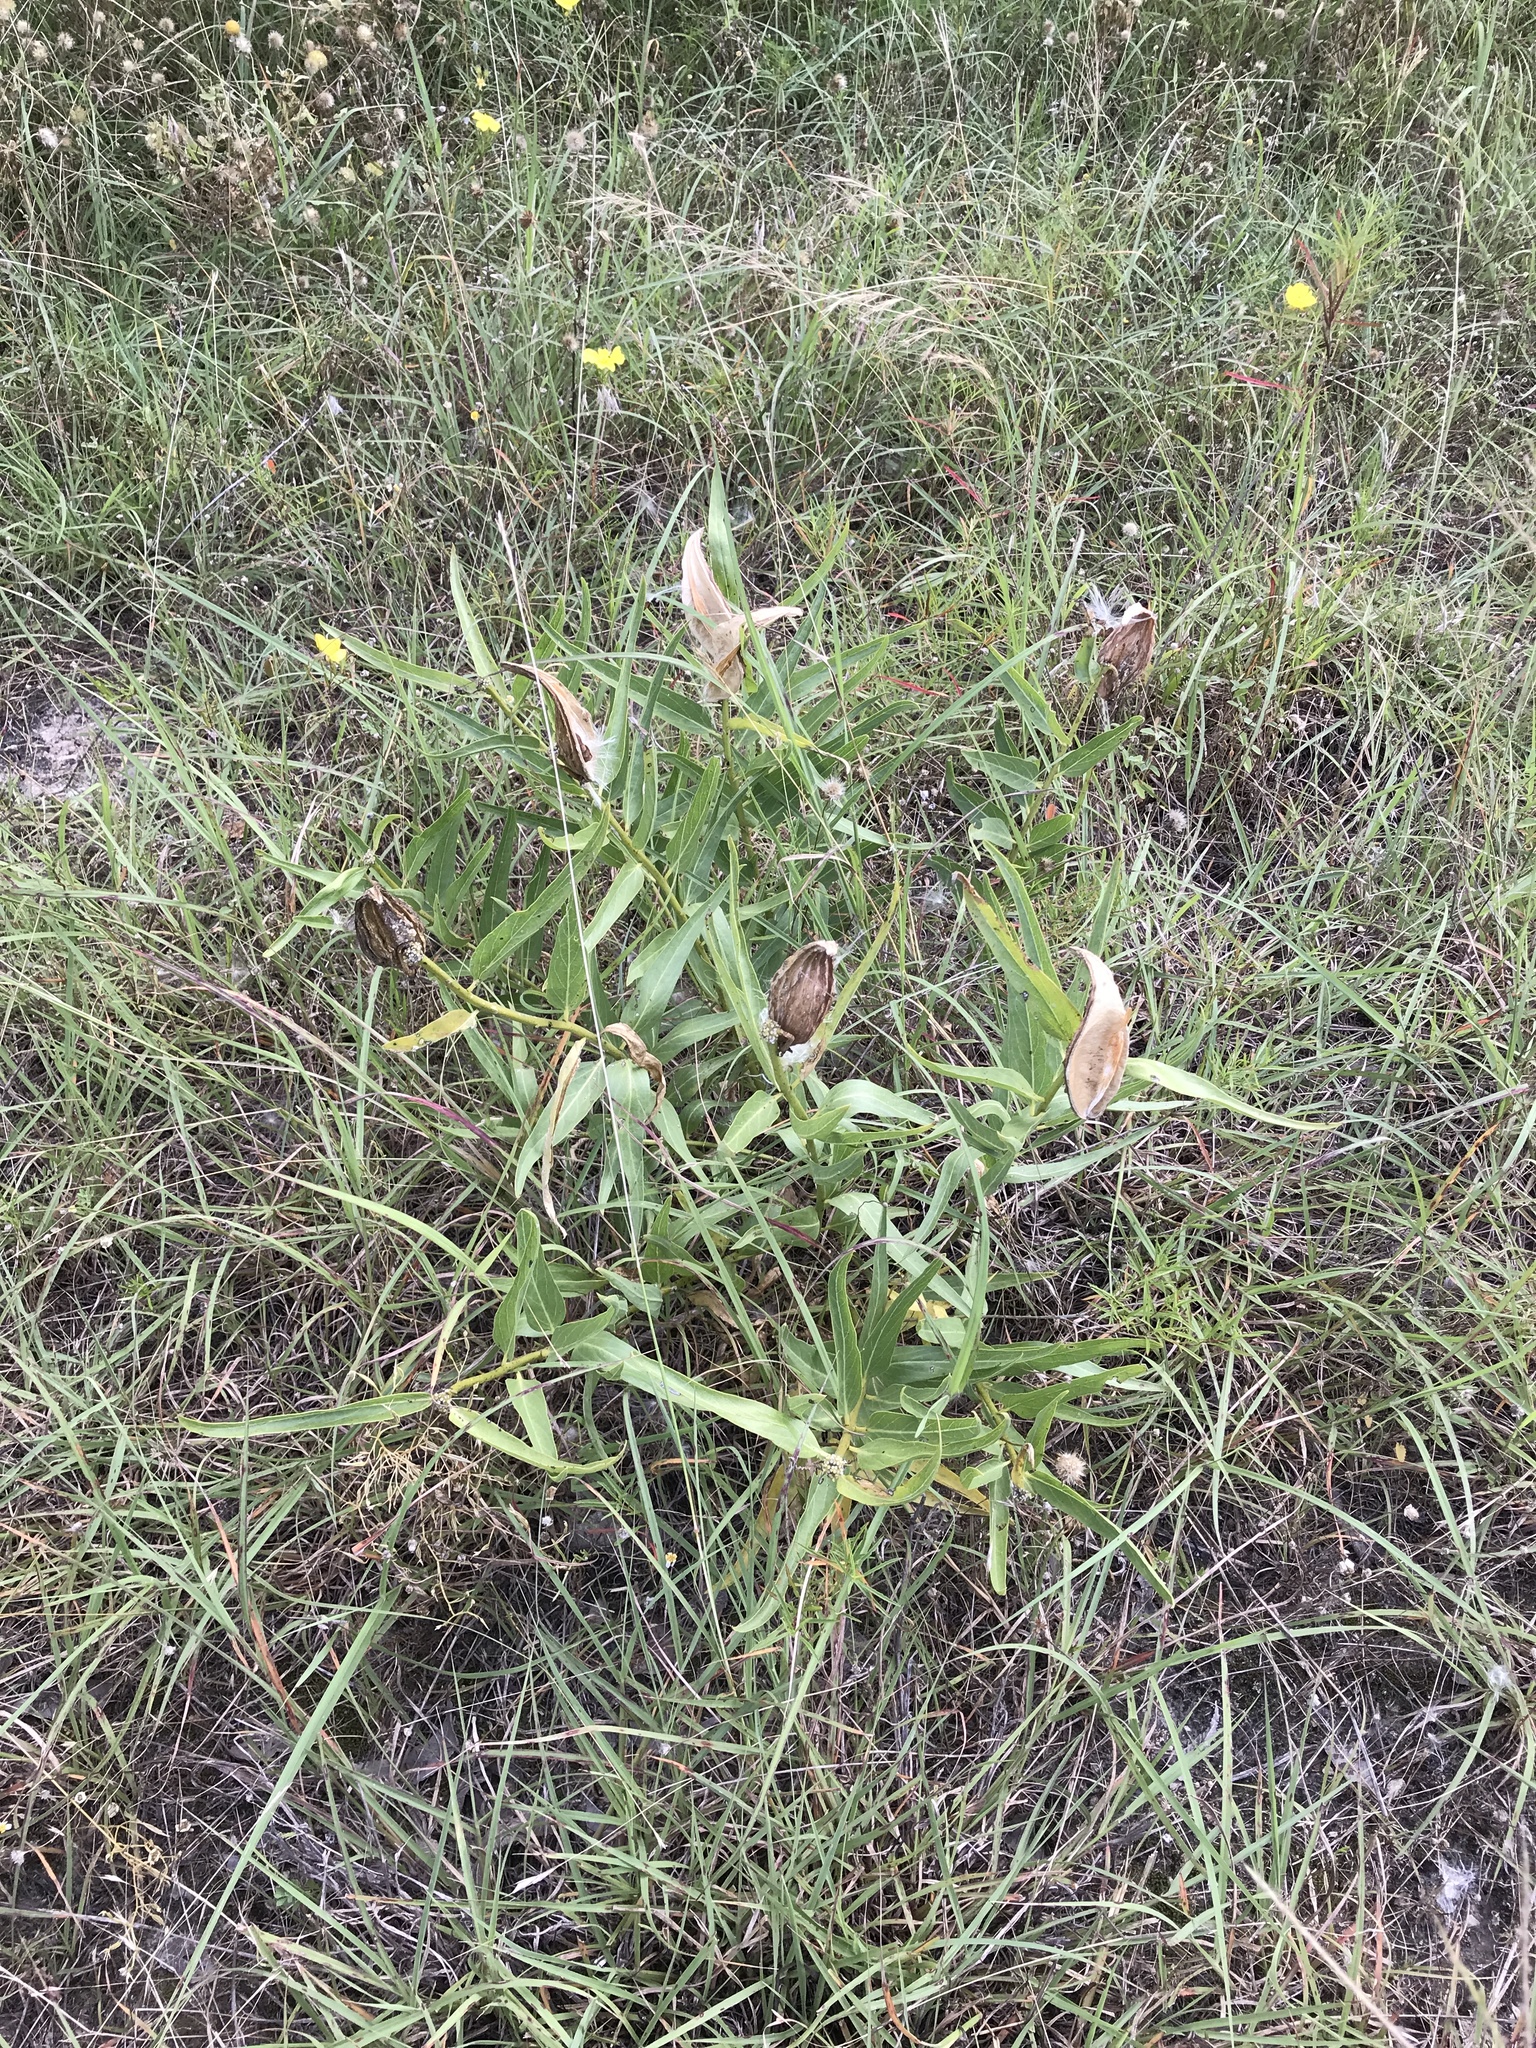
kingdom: Plantae
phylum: Tracheophyta
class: Magnoliopsida
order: Gentianales
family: Apocynaceae
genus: Asclepias
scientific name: Asclepias asperula
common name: Antelope horns
